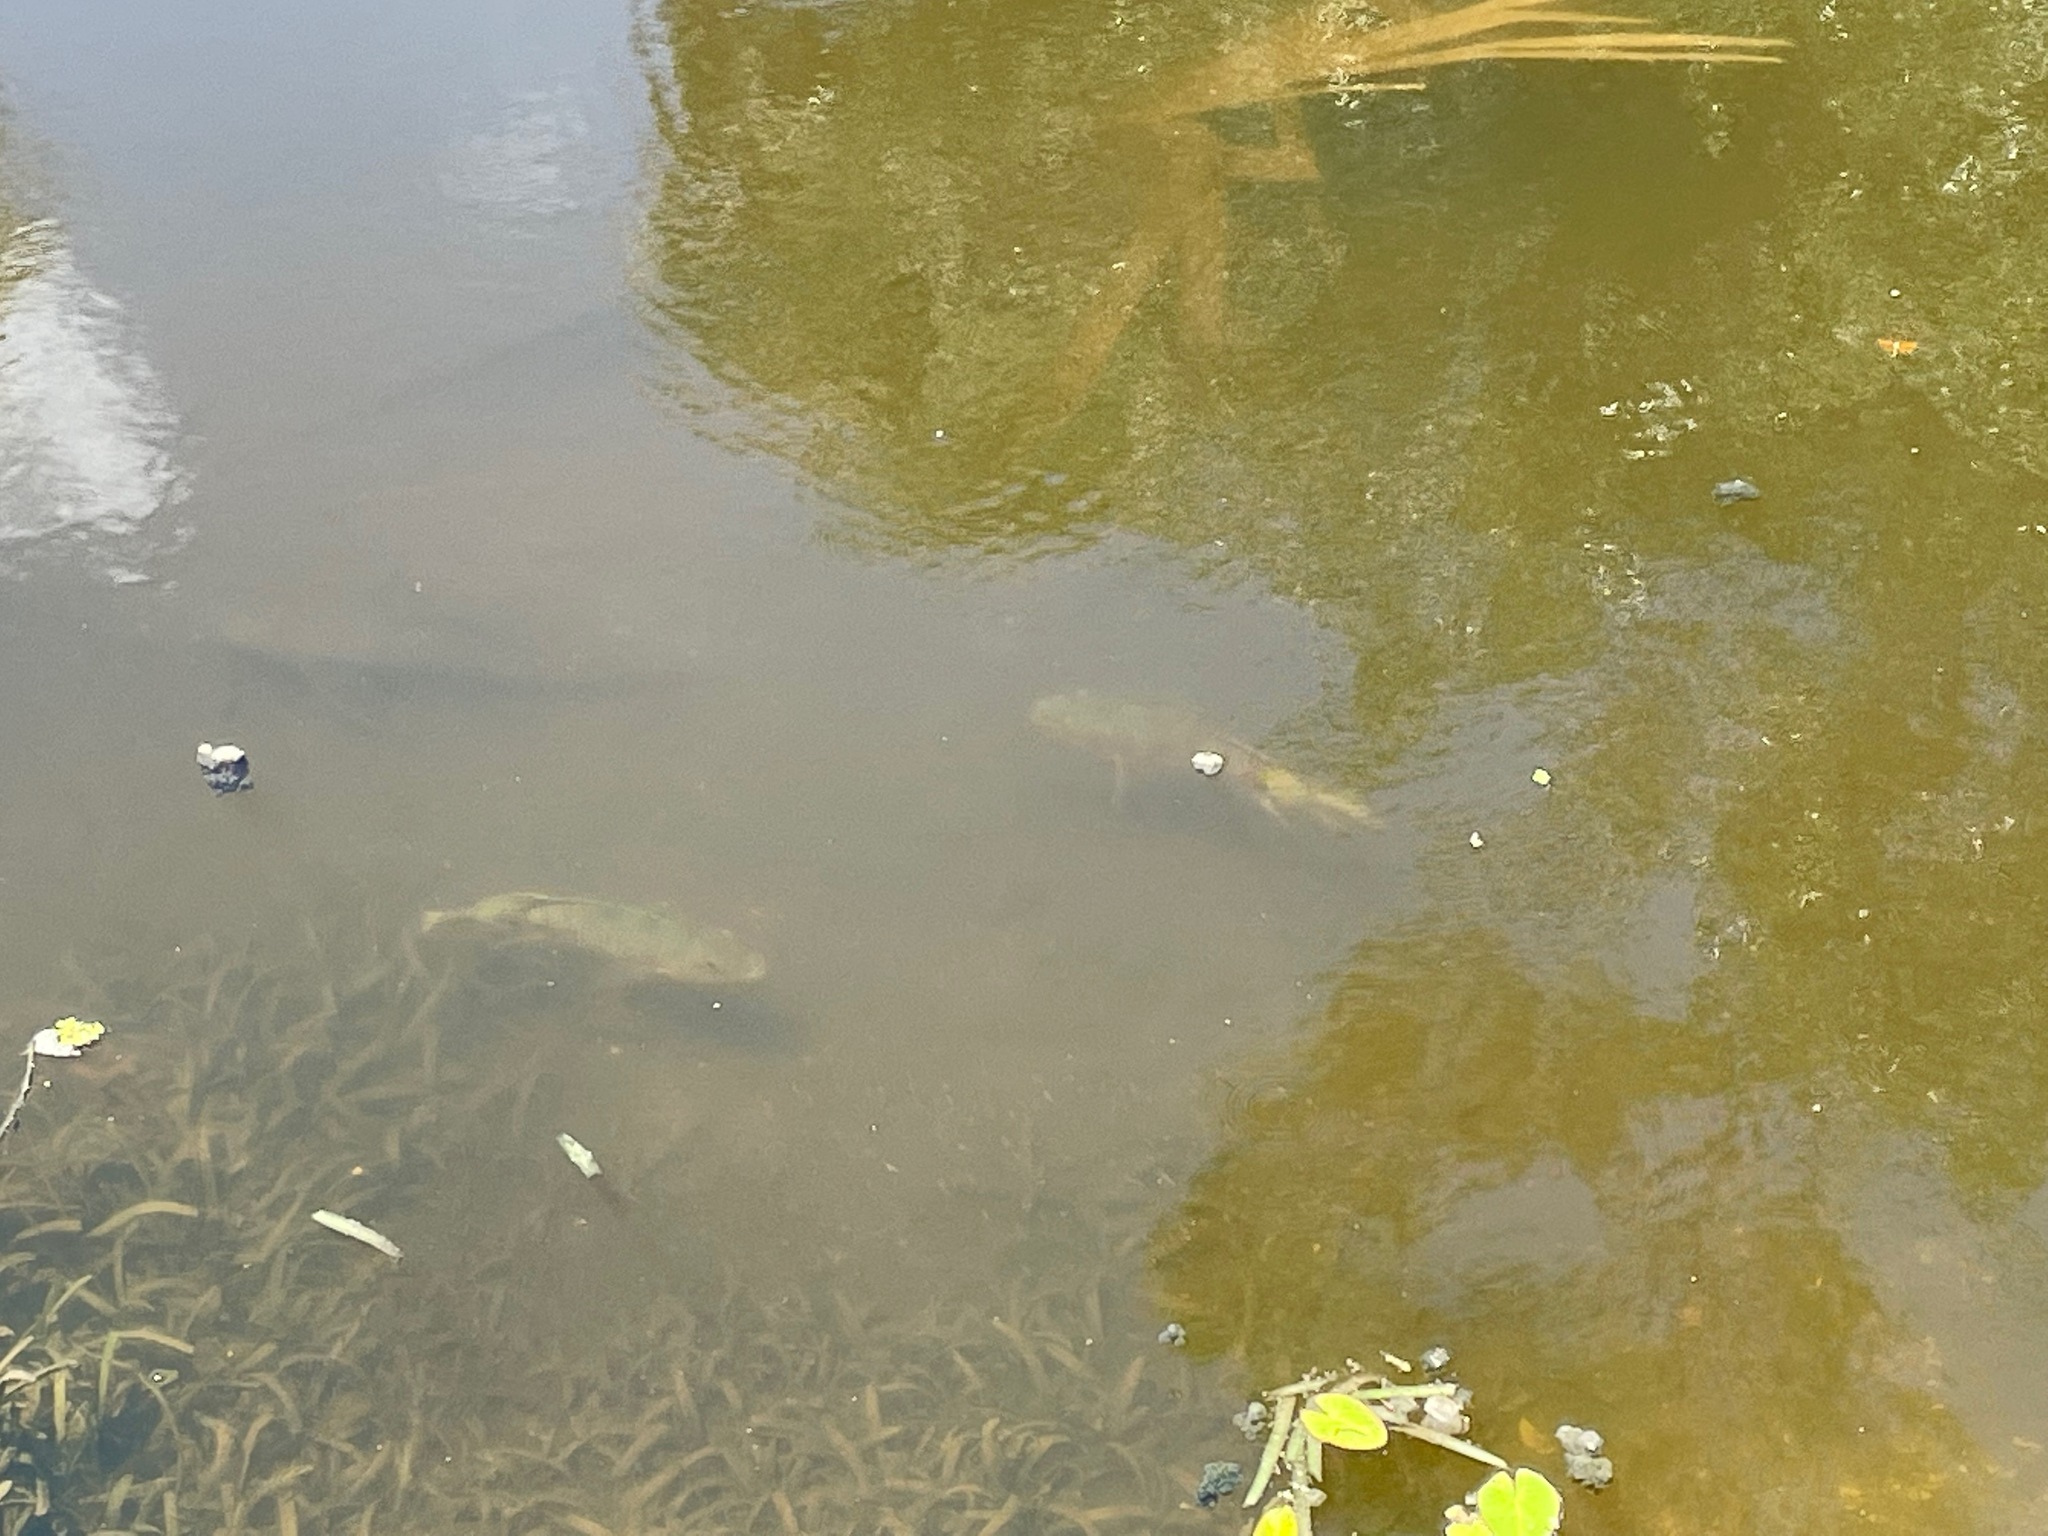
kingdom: Animalia
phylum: Chordata
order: Perciformes
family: Cichlidae
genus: Mayaheros
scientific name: Mayaheros urophthalmus
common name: Mayan cichlid
